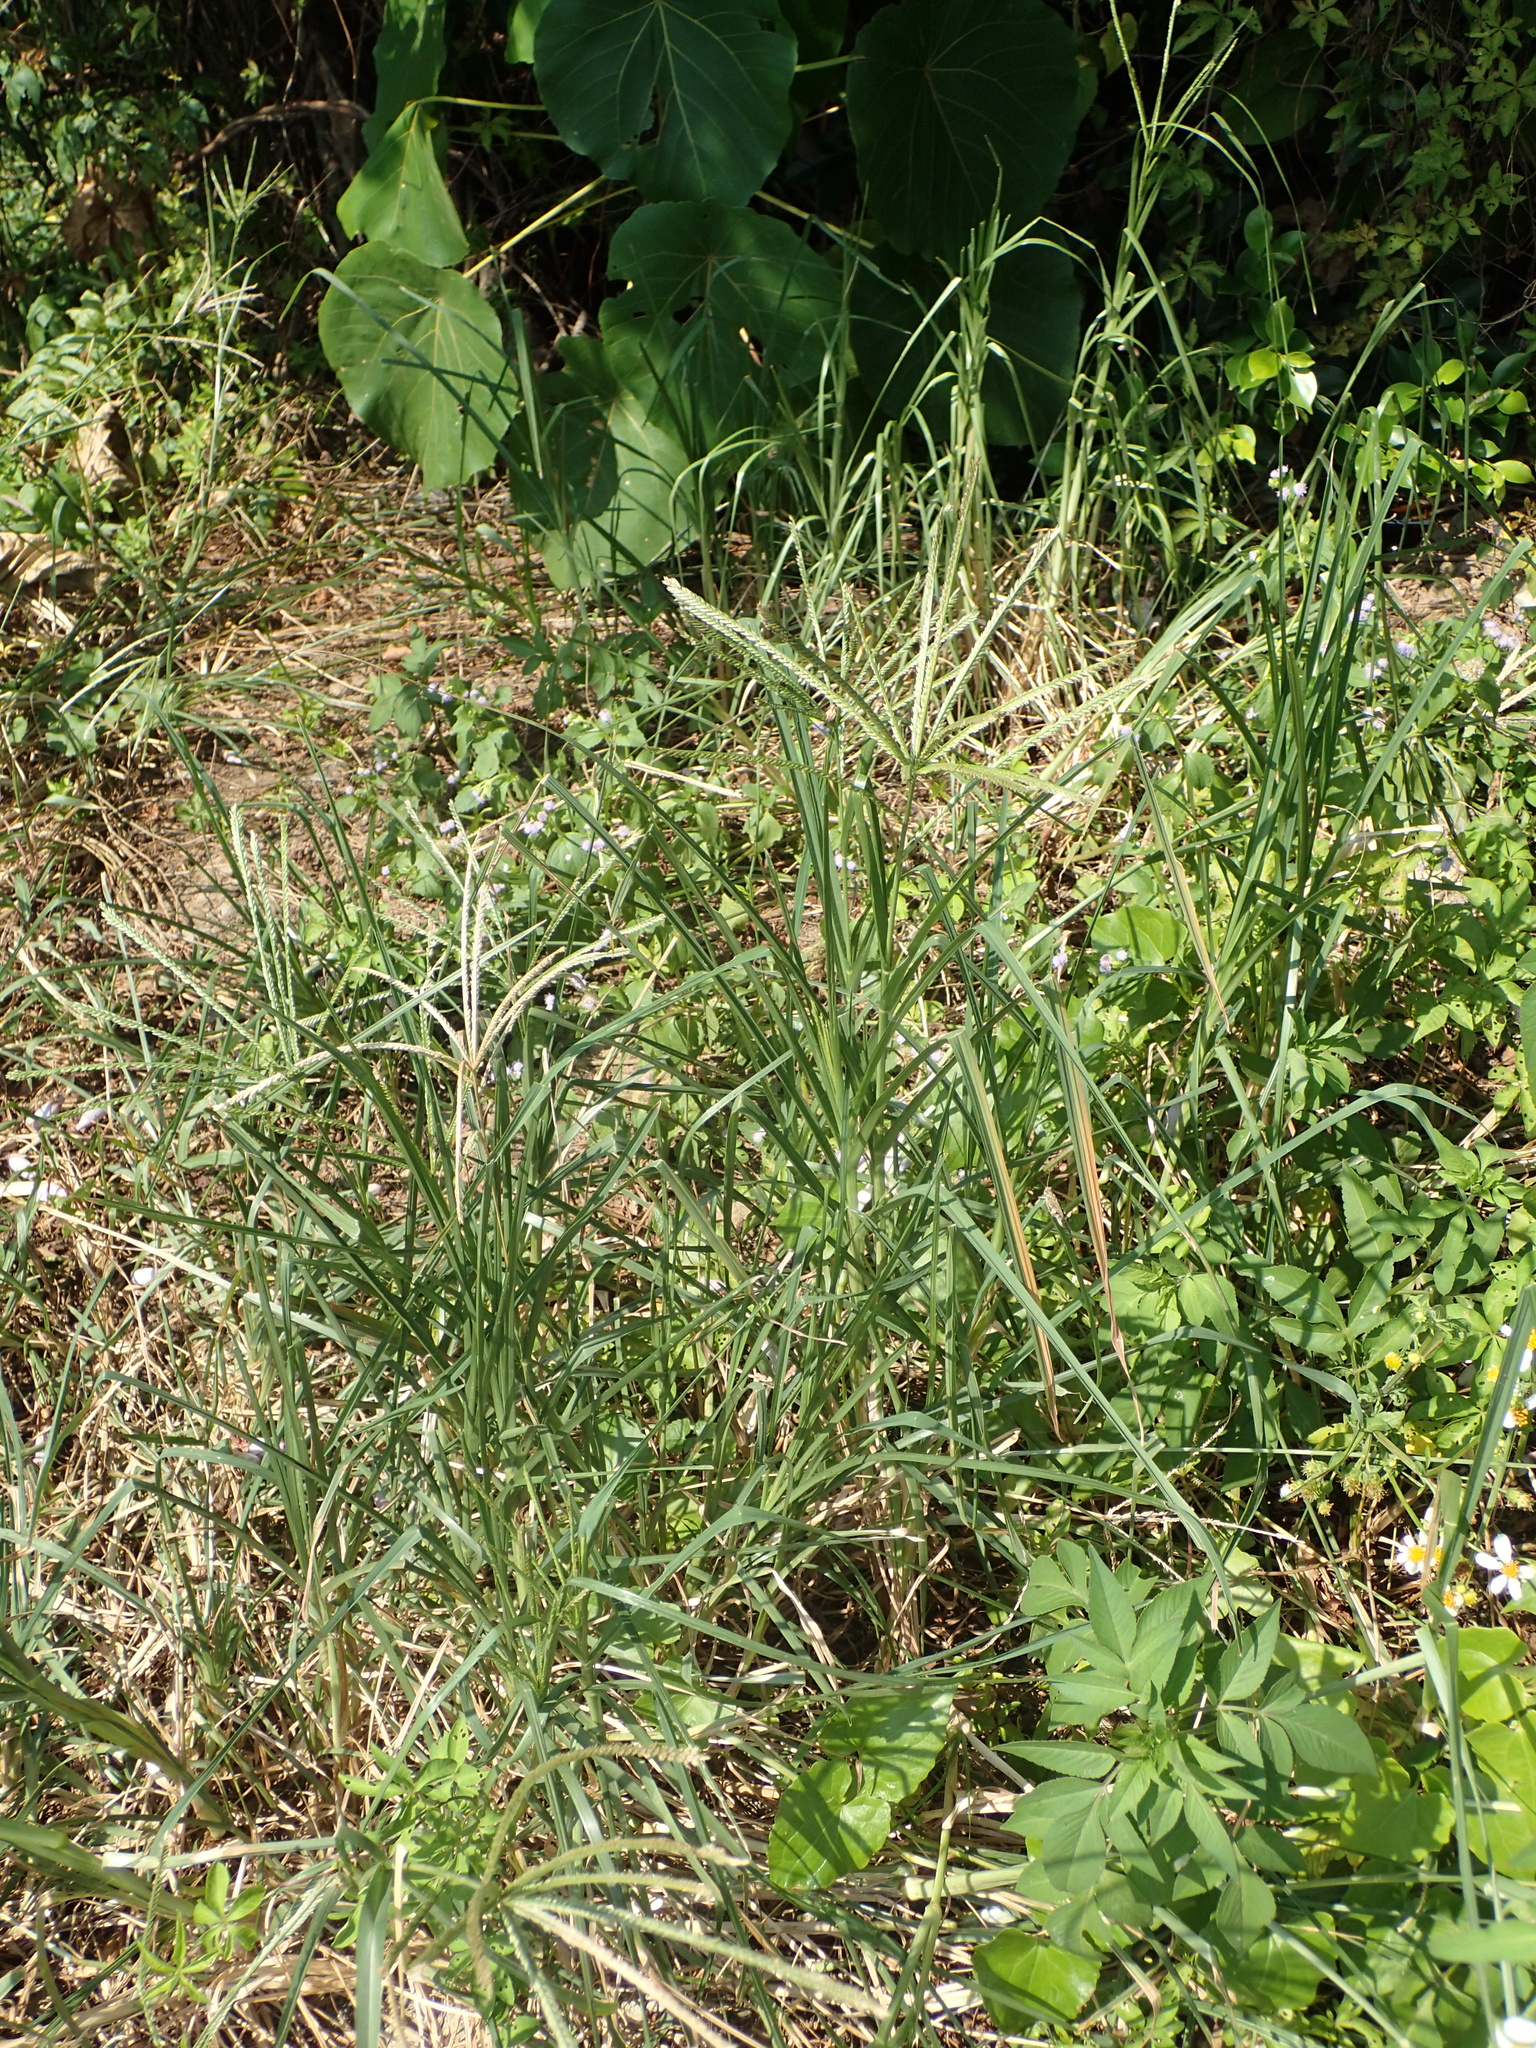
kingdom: Plantae
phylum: Tracheophyta
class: Liliopsida
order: Poales
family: Poaceae
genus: Eleusine
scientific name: Eleusine indica
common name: Yard-grass
